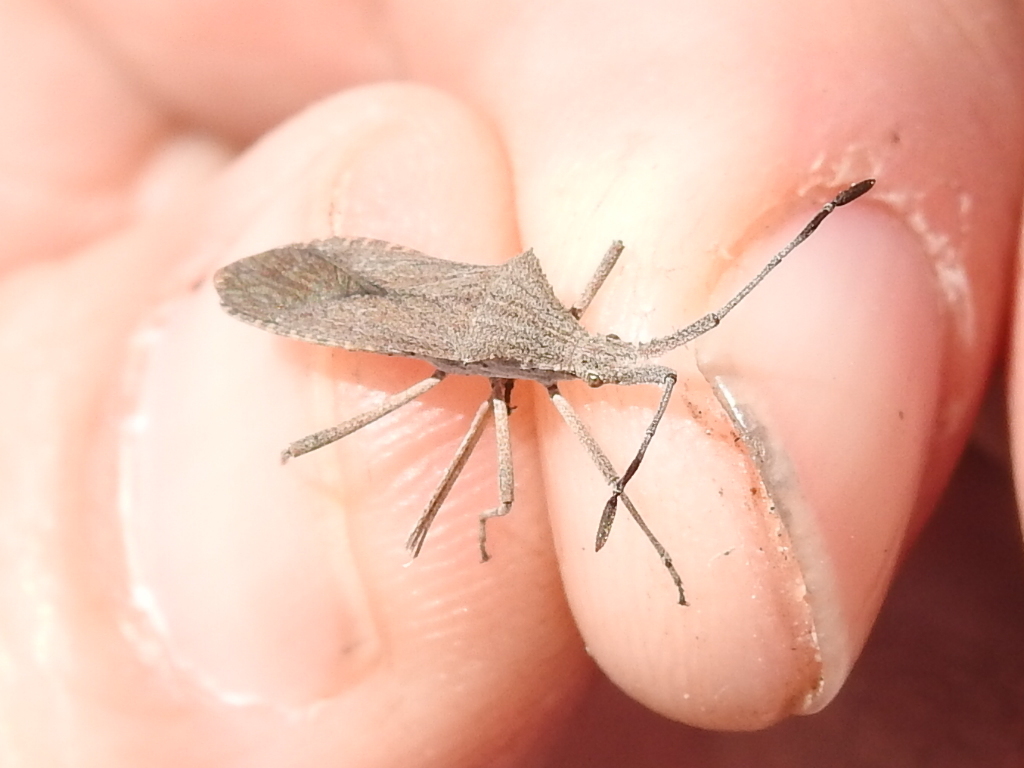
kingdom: Animalia
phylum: Arthropoda
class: Insecta
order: Hemiptera
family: Coreidae
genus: Chariesterus
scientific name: Chariesterus antennator
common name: Flat horned coreid
